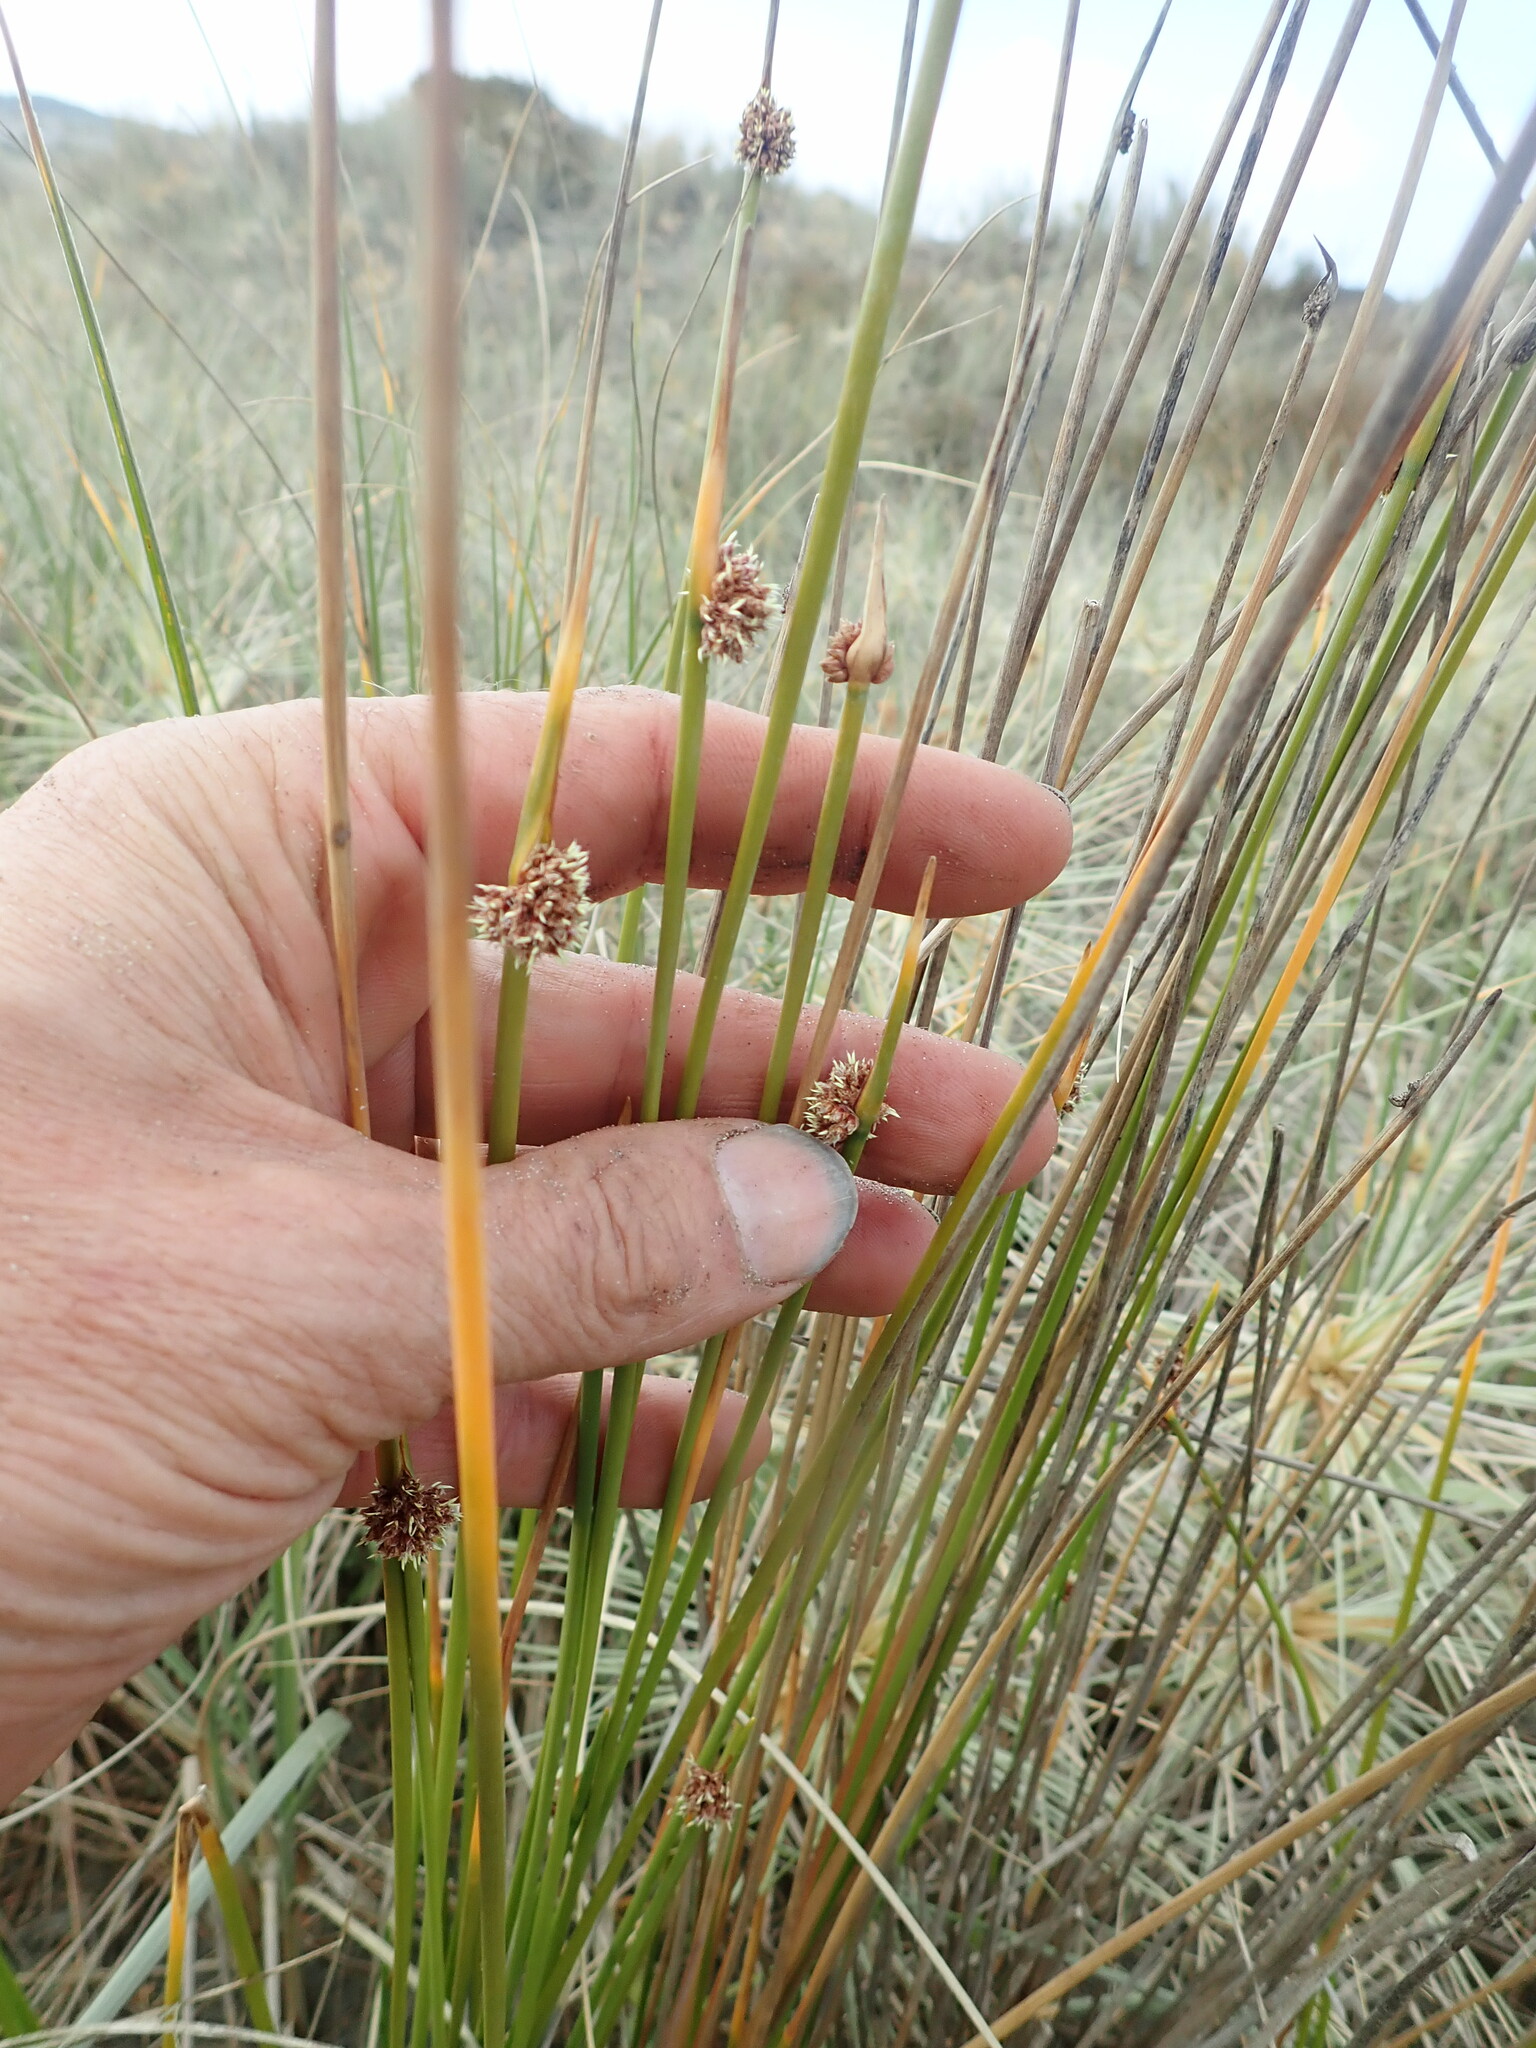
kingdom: Plantae
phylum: Tracheophyta
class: Liliopsida
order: Poales
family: Cyperaceae
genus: Ficinia
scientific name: Ficinia nodosa
